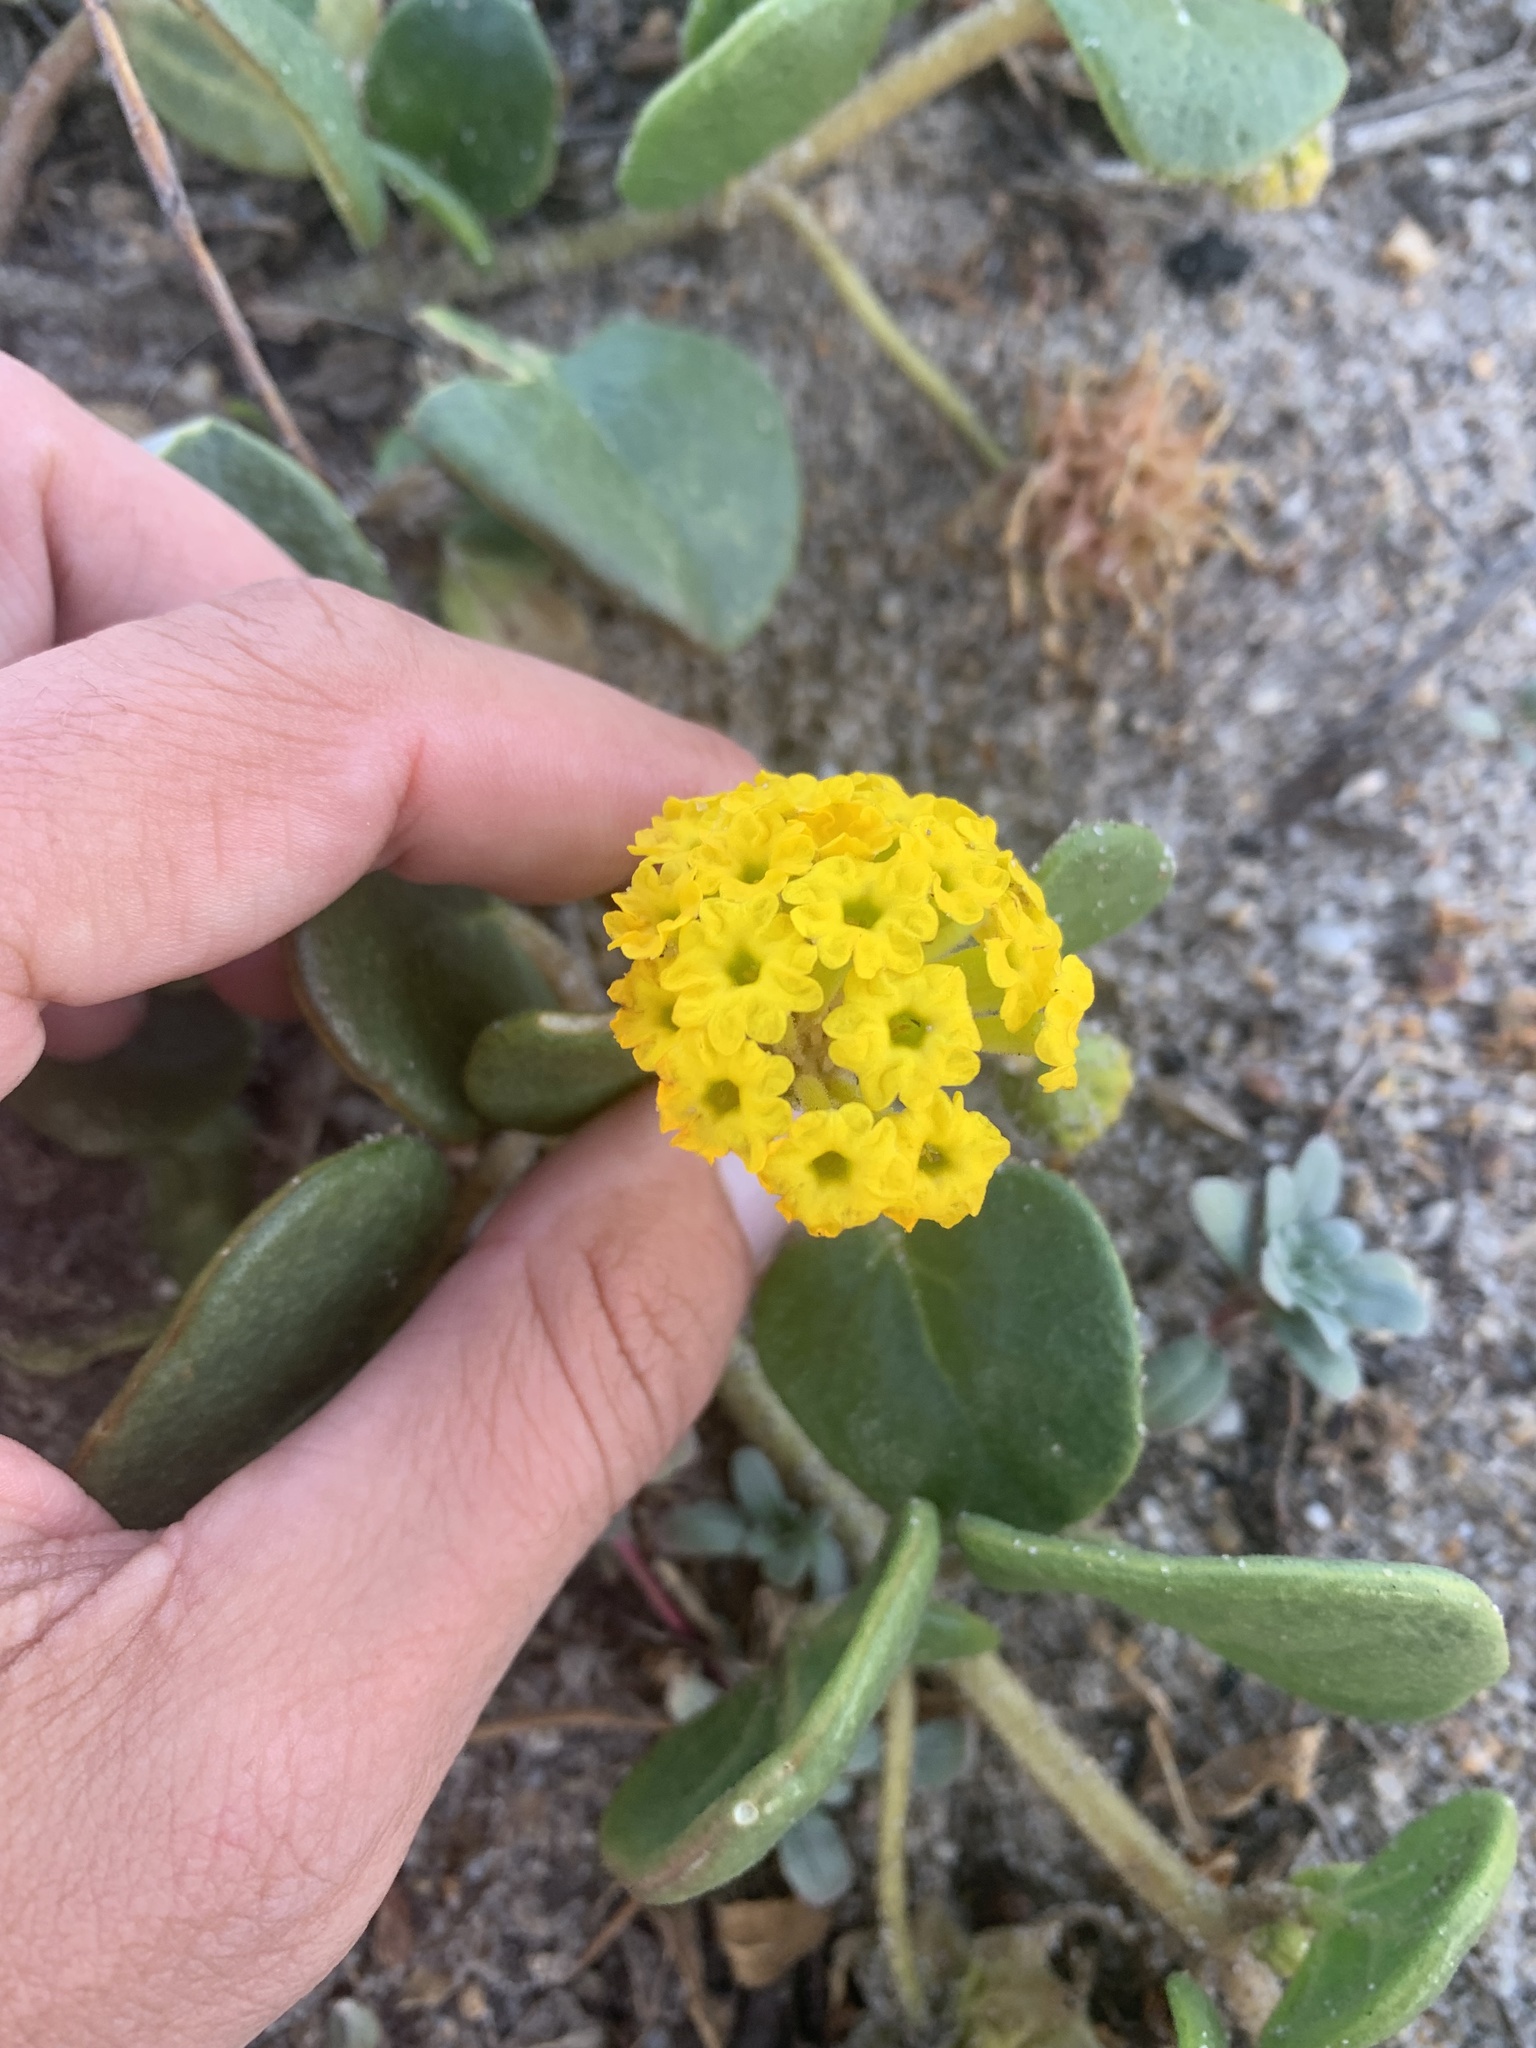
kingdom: Plantae
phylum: Tracheophyta
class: Magnoliopsida
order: Caryophyllales
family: Nyctaginaceae
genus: Abronia
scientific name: Abronia latifolia
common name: Yellow sand-verbena
